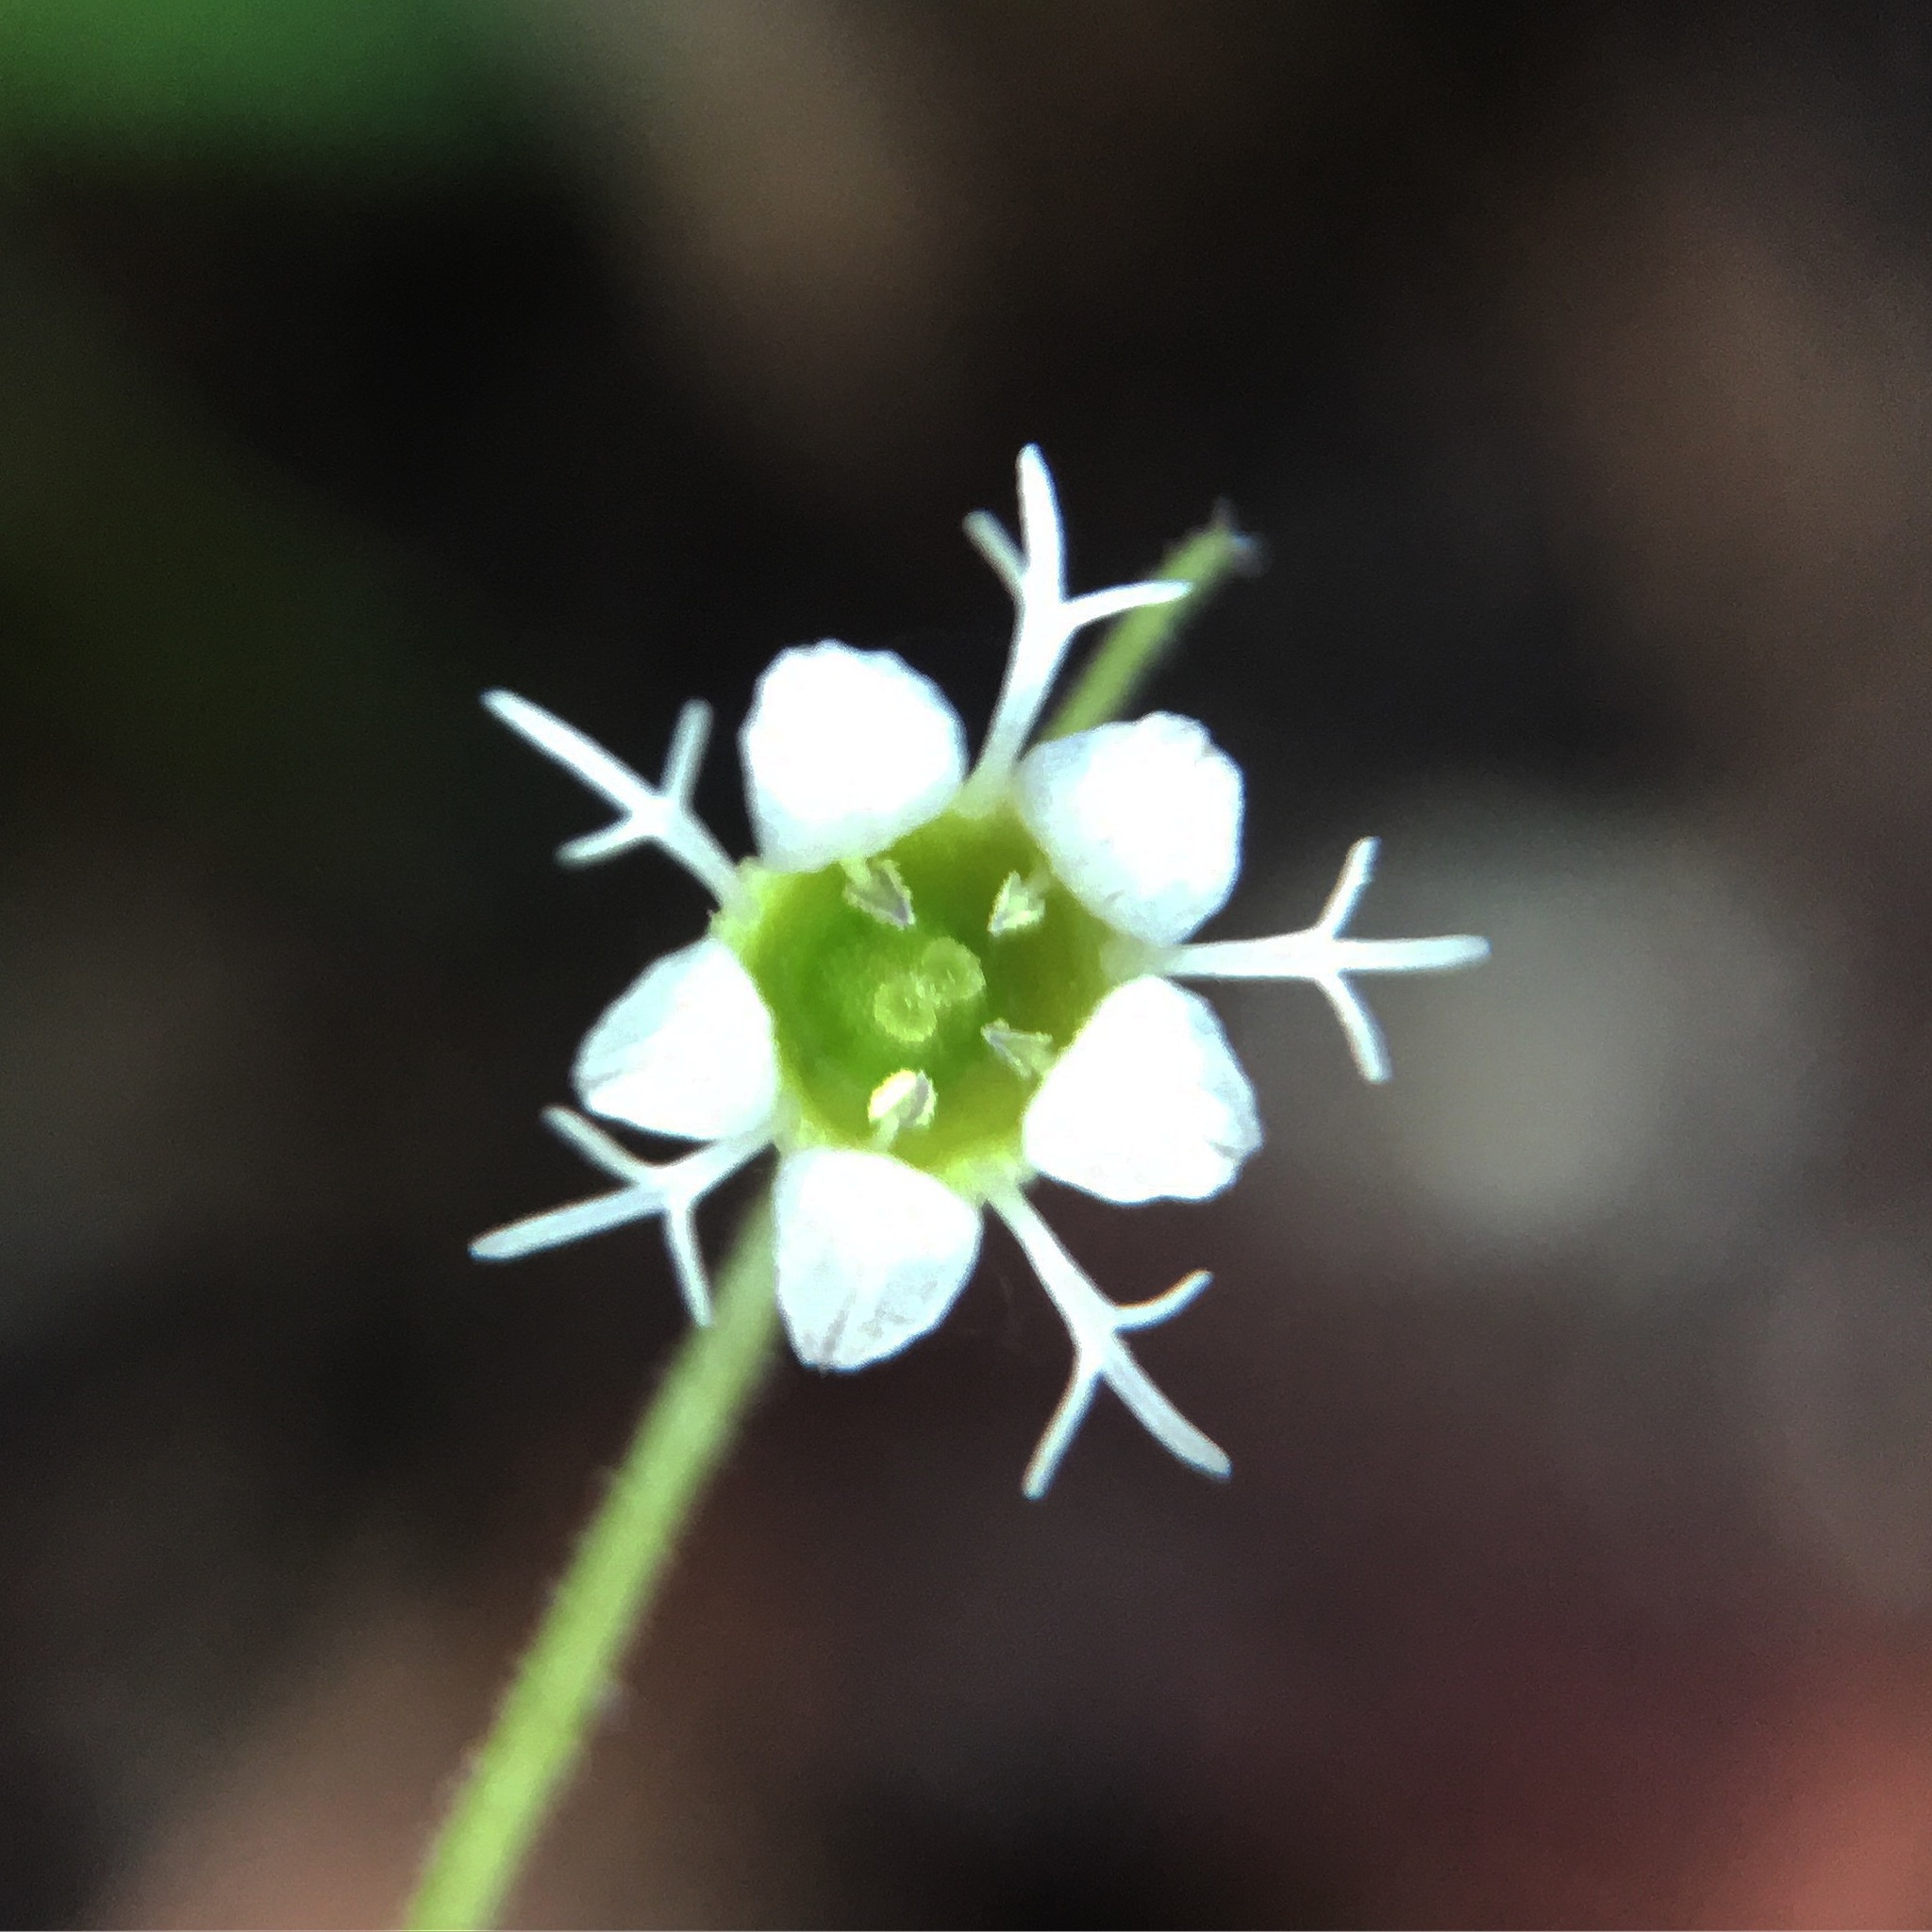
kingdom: Plantae
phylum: Tracheophyta
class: Magnoliopsida
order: Saxifragales
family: Saxifragaceae
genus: Ozomelis
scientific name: Ozomelis stauropetala
